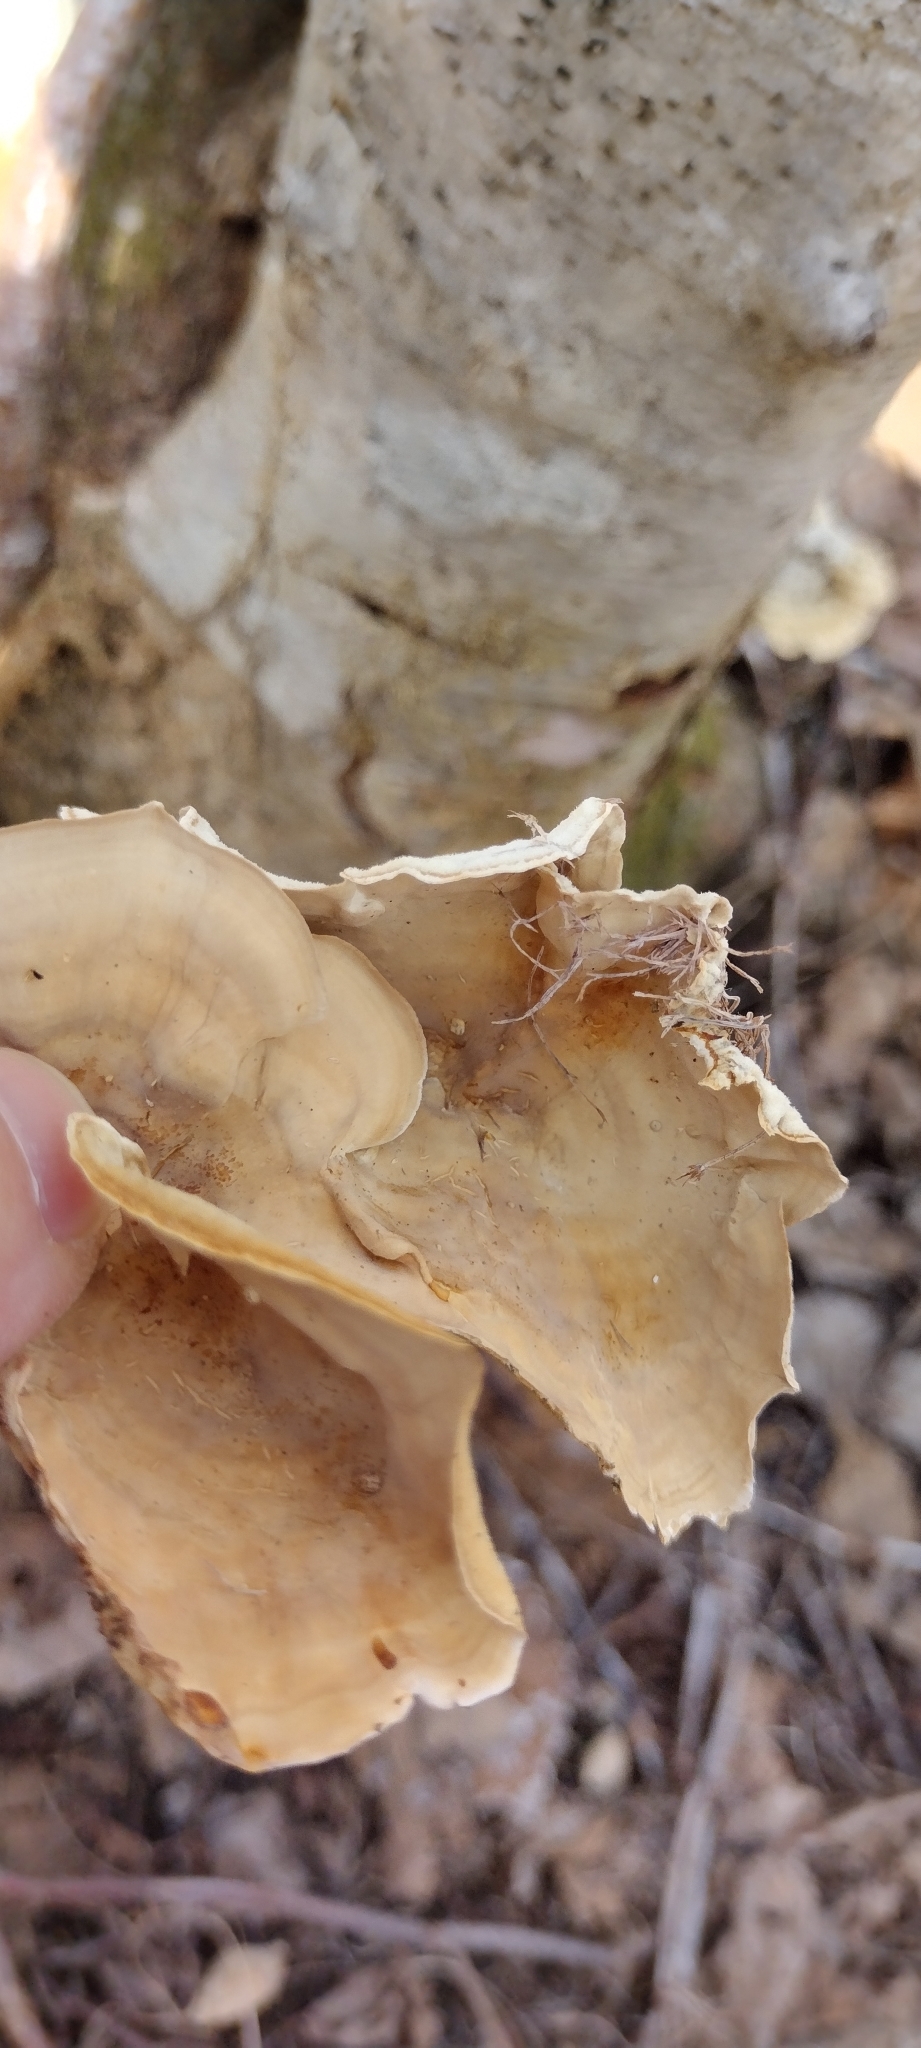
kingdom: Fungi
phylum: Basidiomycota
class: Agaricomycetes
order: Russulales
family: Stereaceae
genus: Stereum
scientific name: Stereum subtomentosum
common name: Yellowing curtain crust
